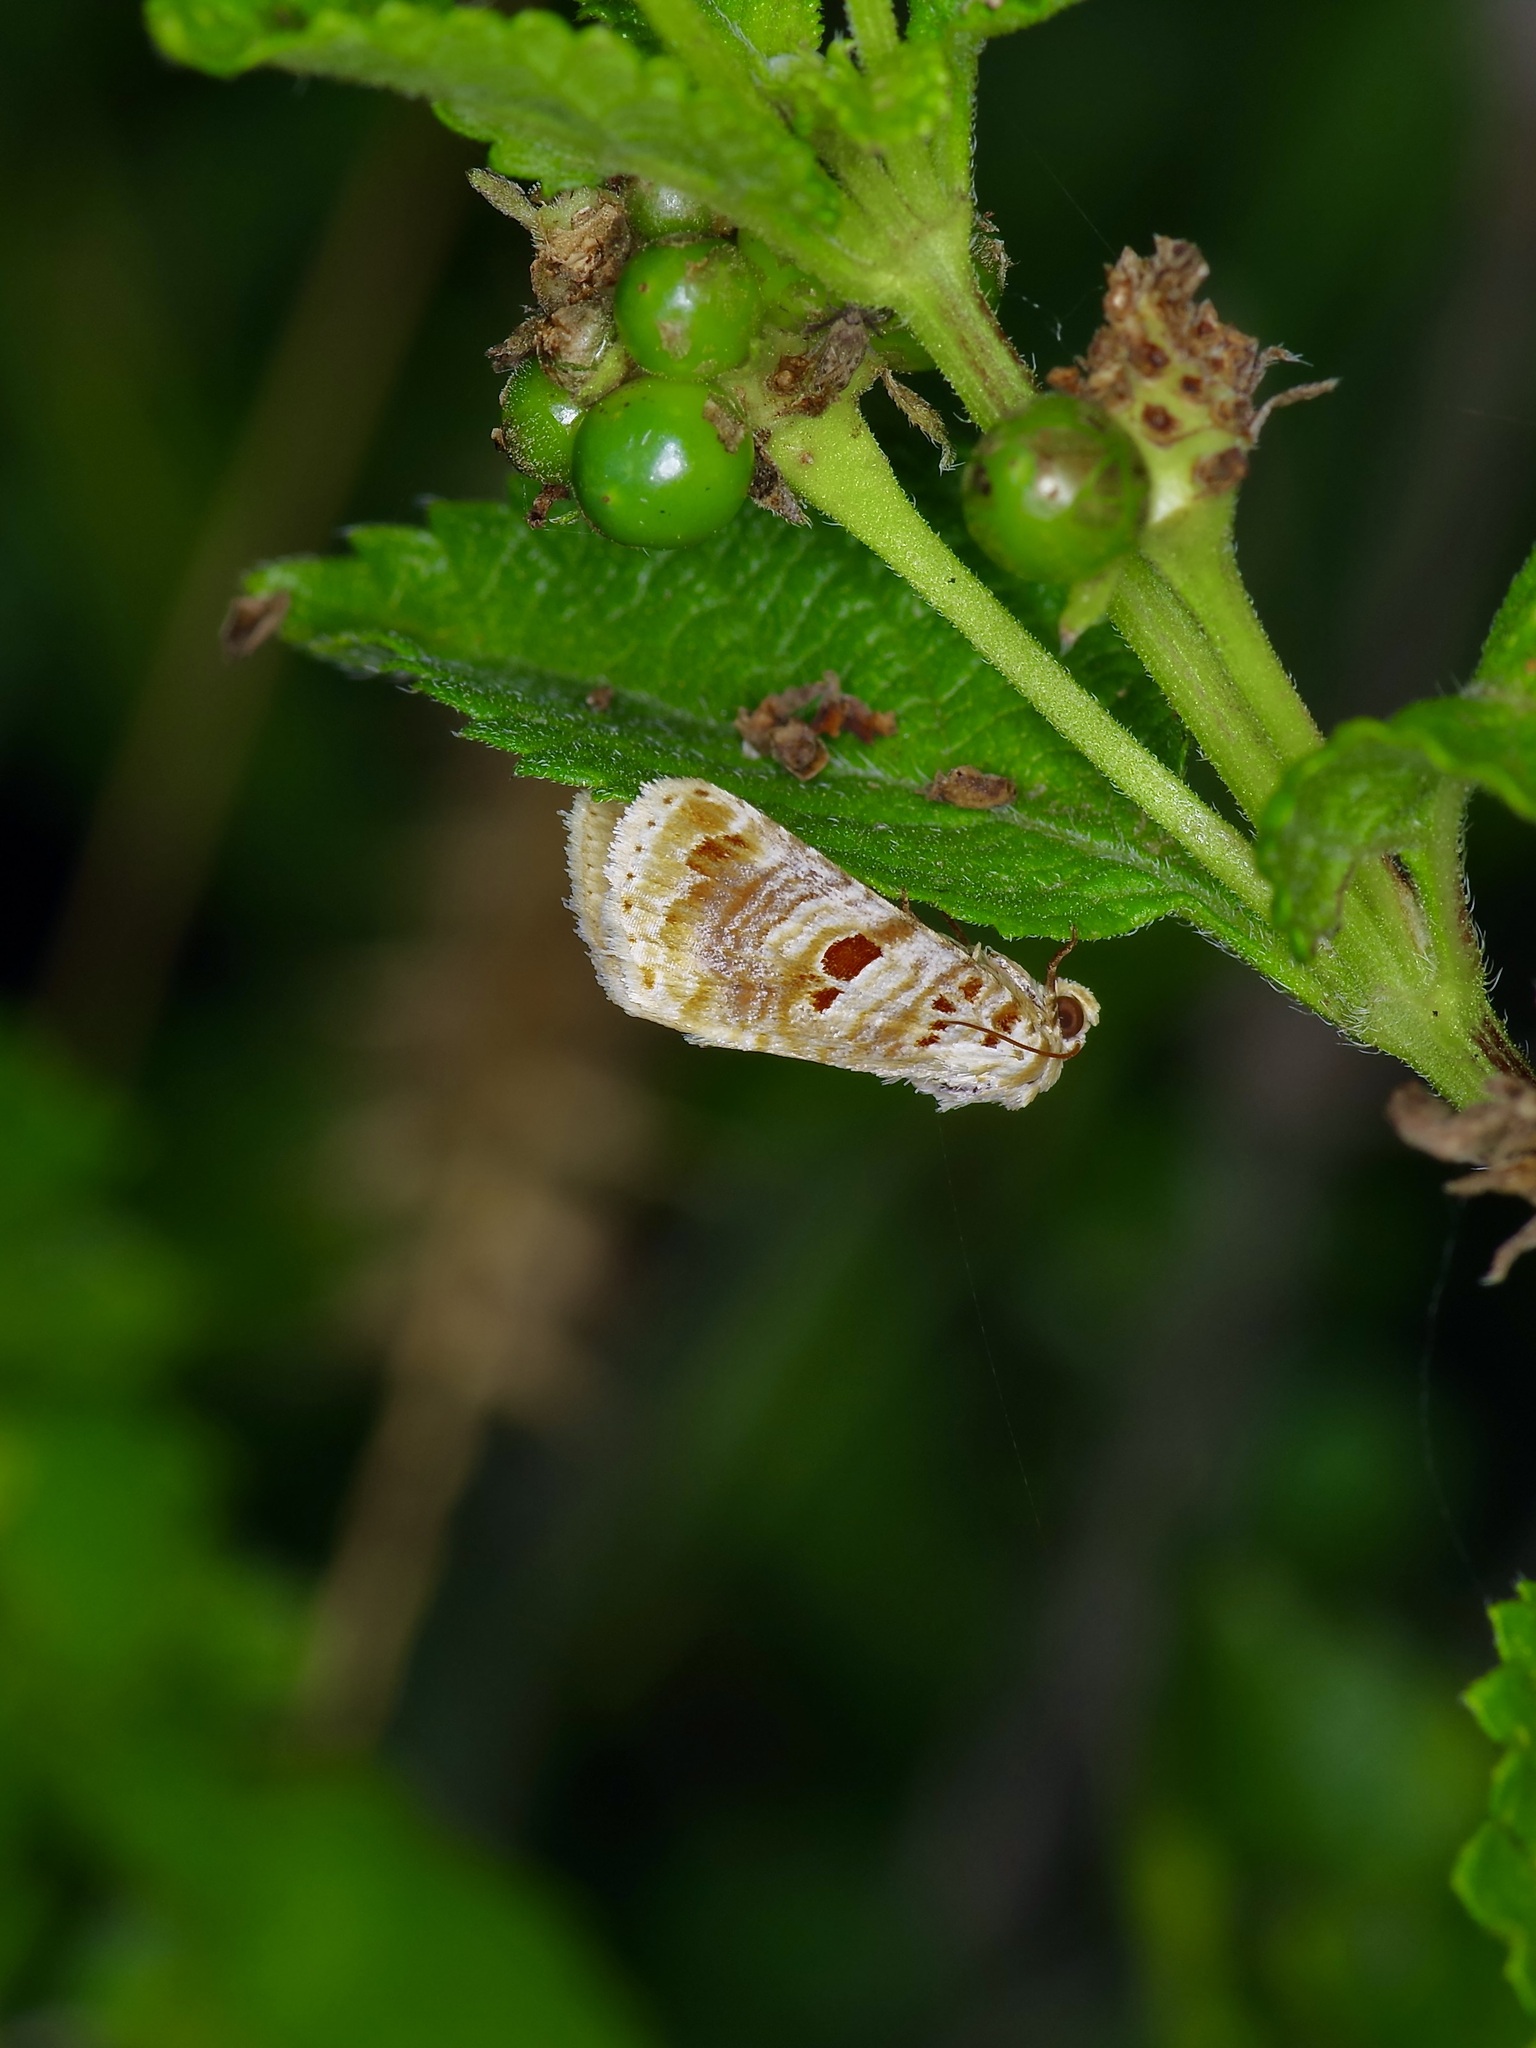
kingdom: Animalia
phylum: Arthropoda
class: Insecta
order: Lepidoptera
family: Noctuidae
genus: Diastema
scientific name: Diastema tigris
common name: Lantana moth
